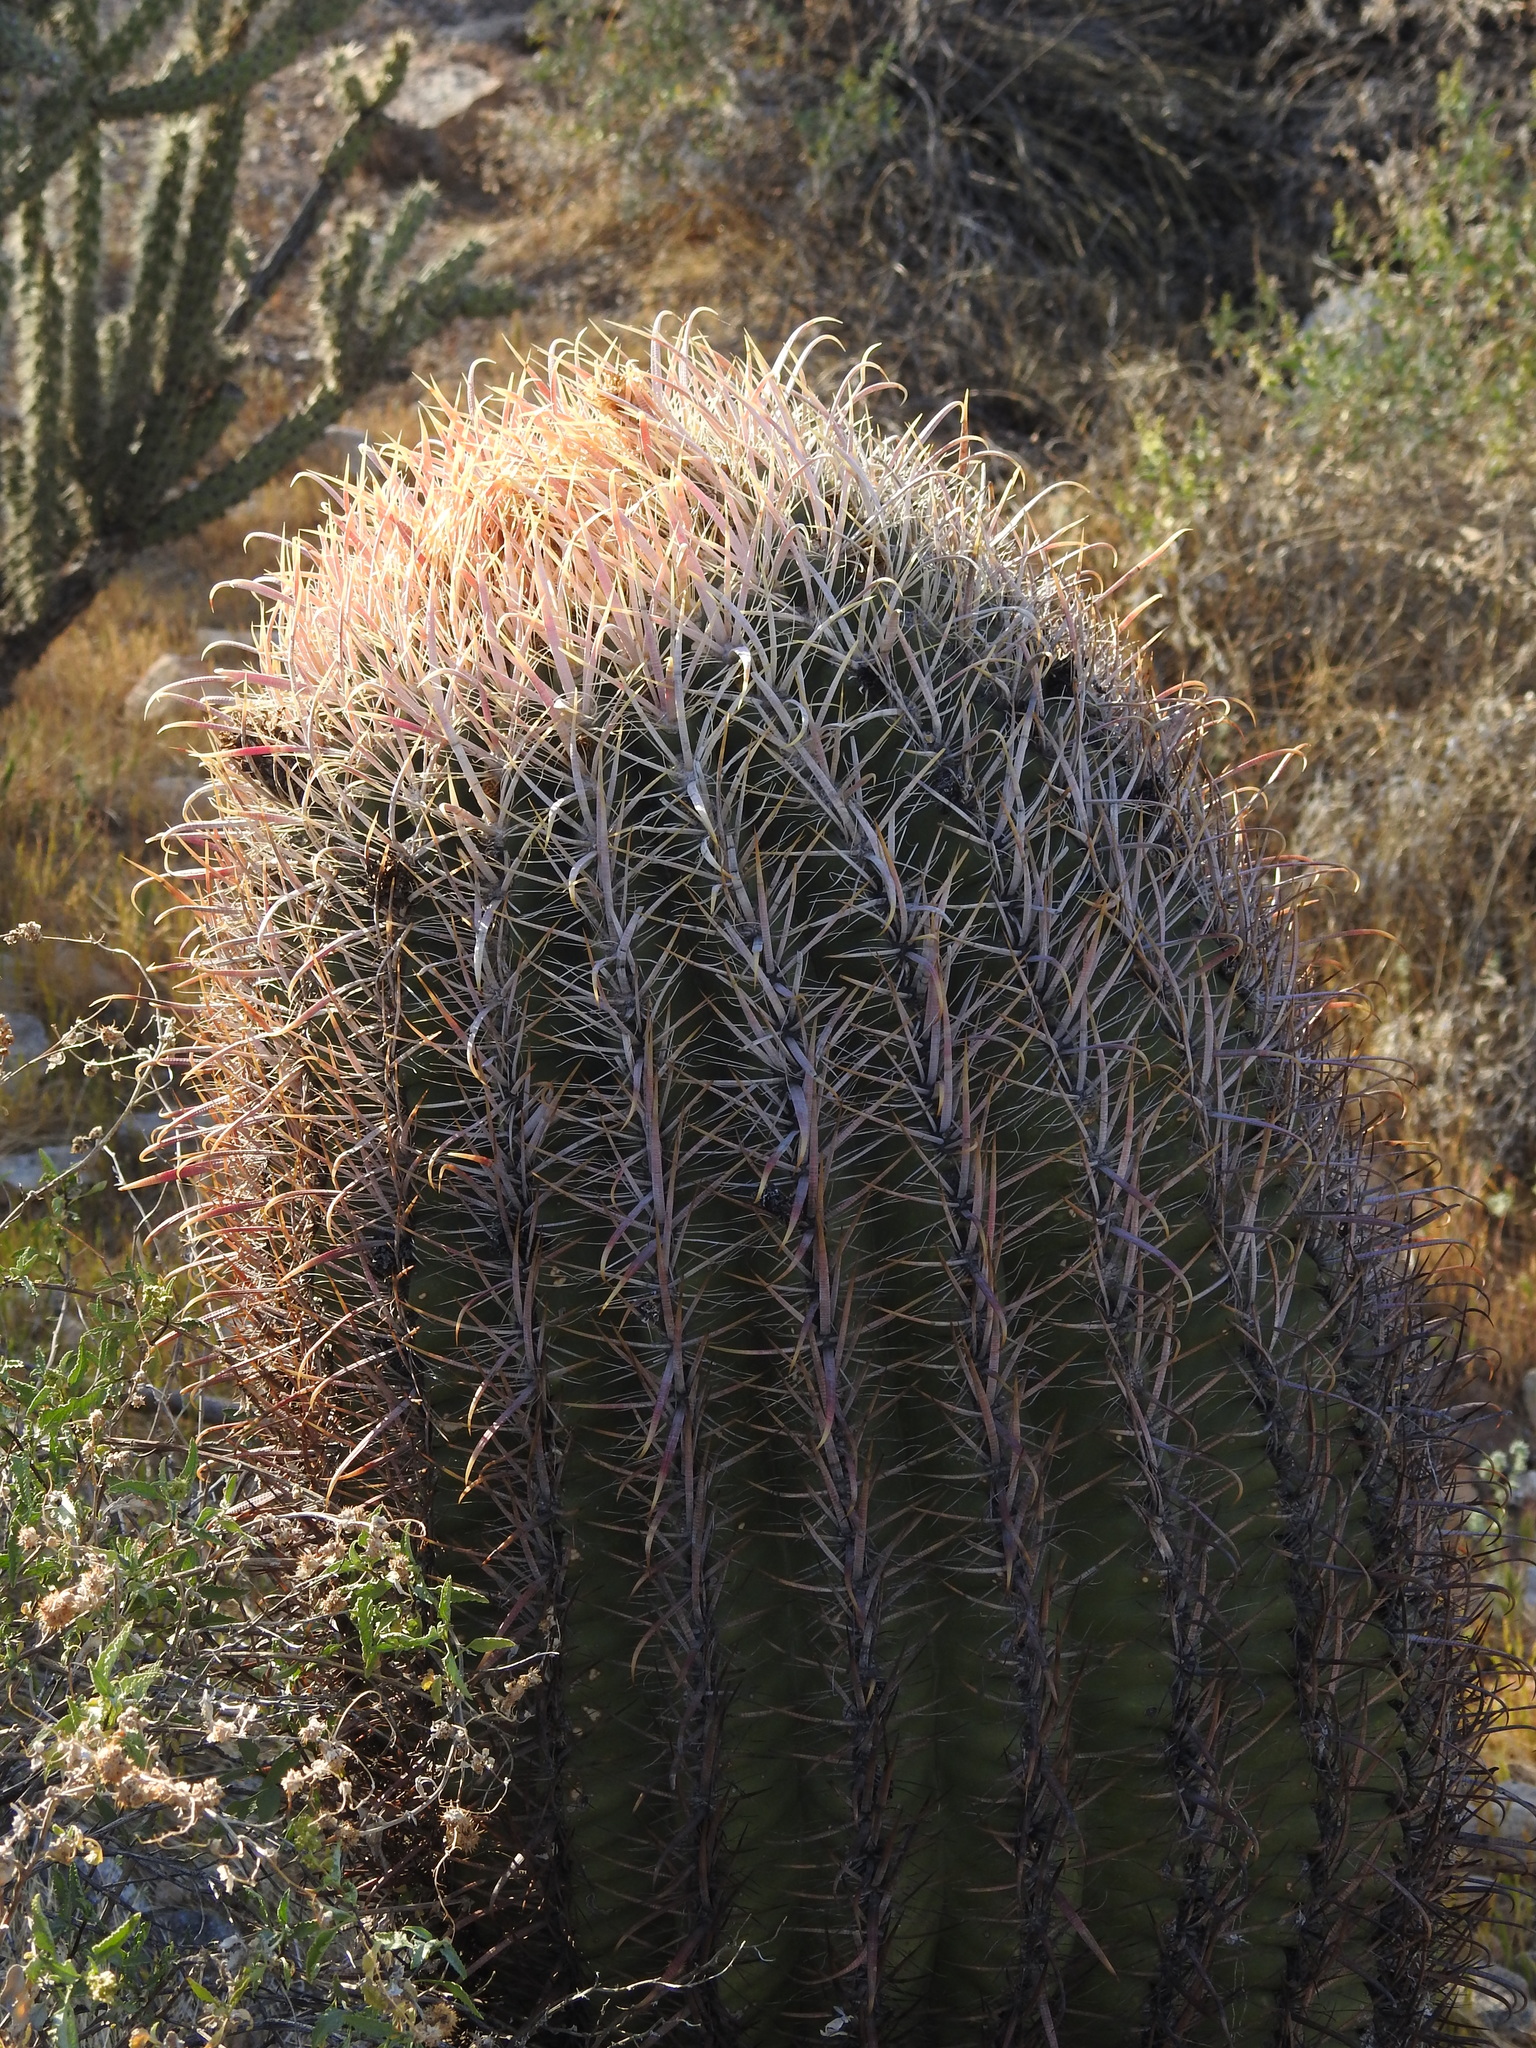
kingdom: Plantae
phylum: Tracheophyta
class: Magnoliopsida
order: Caryophyllales
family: Cactaceae
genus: Ferocactus
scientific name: Ferocactus cylindraceus
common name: California barrel cactus
